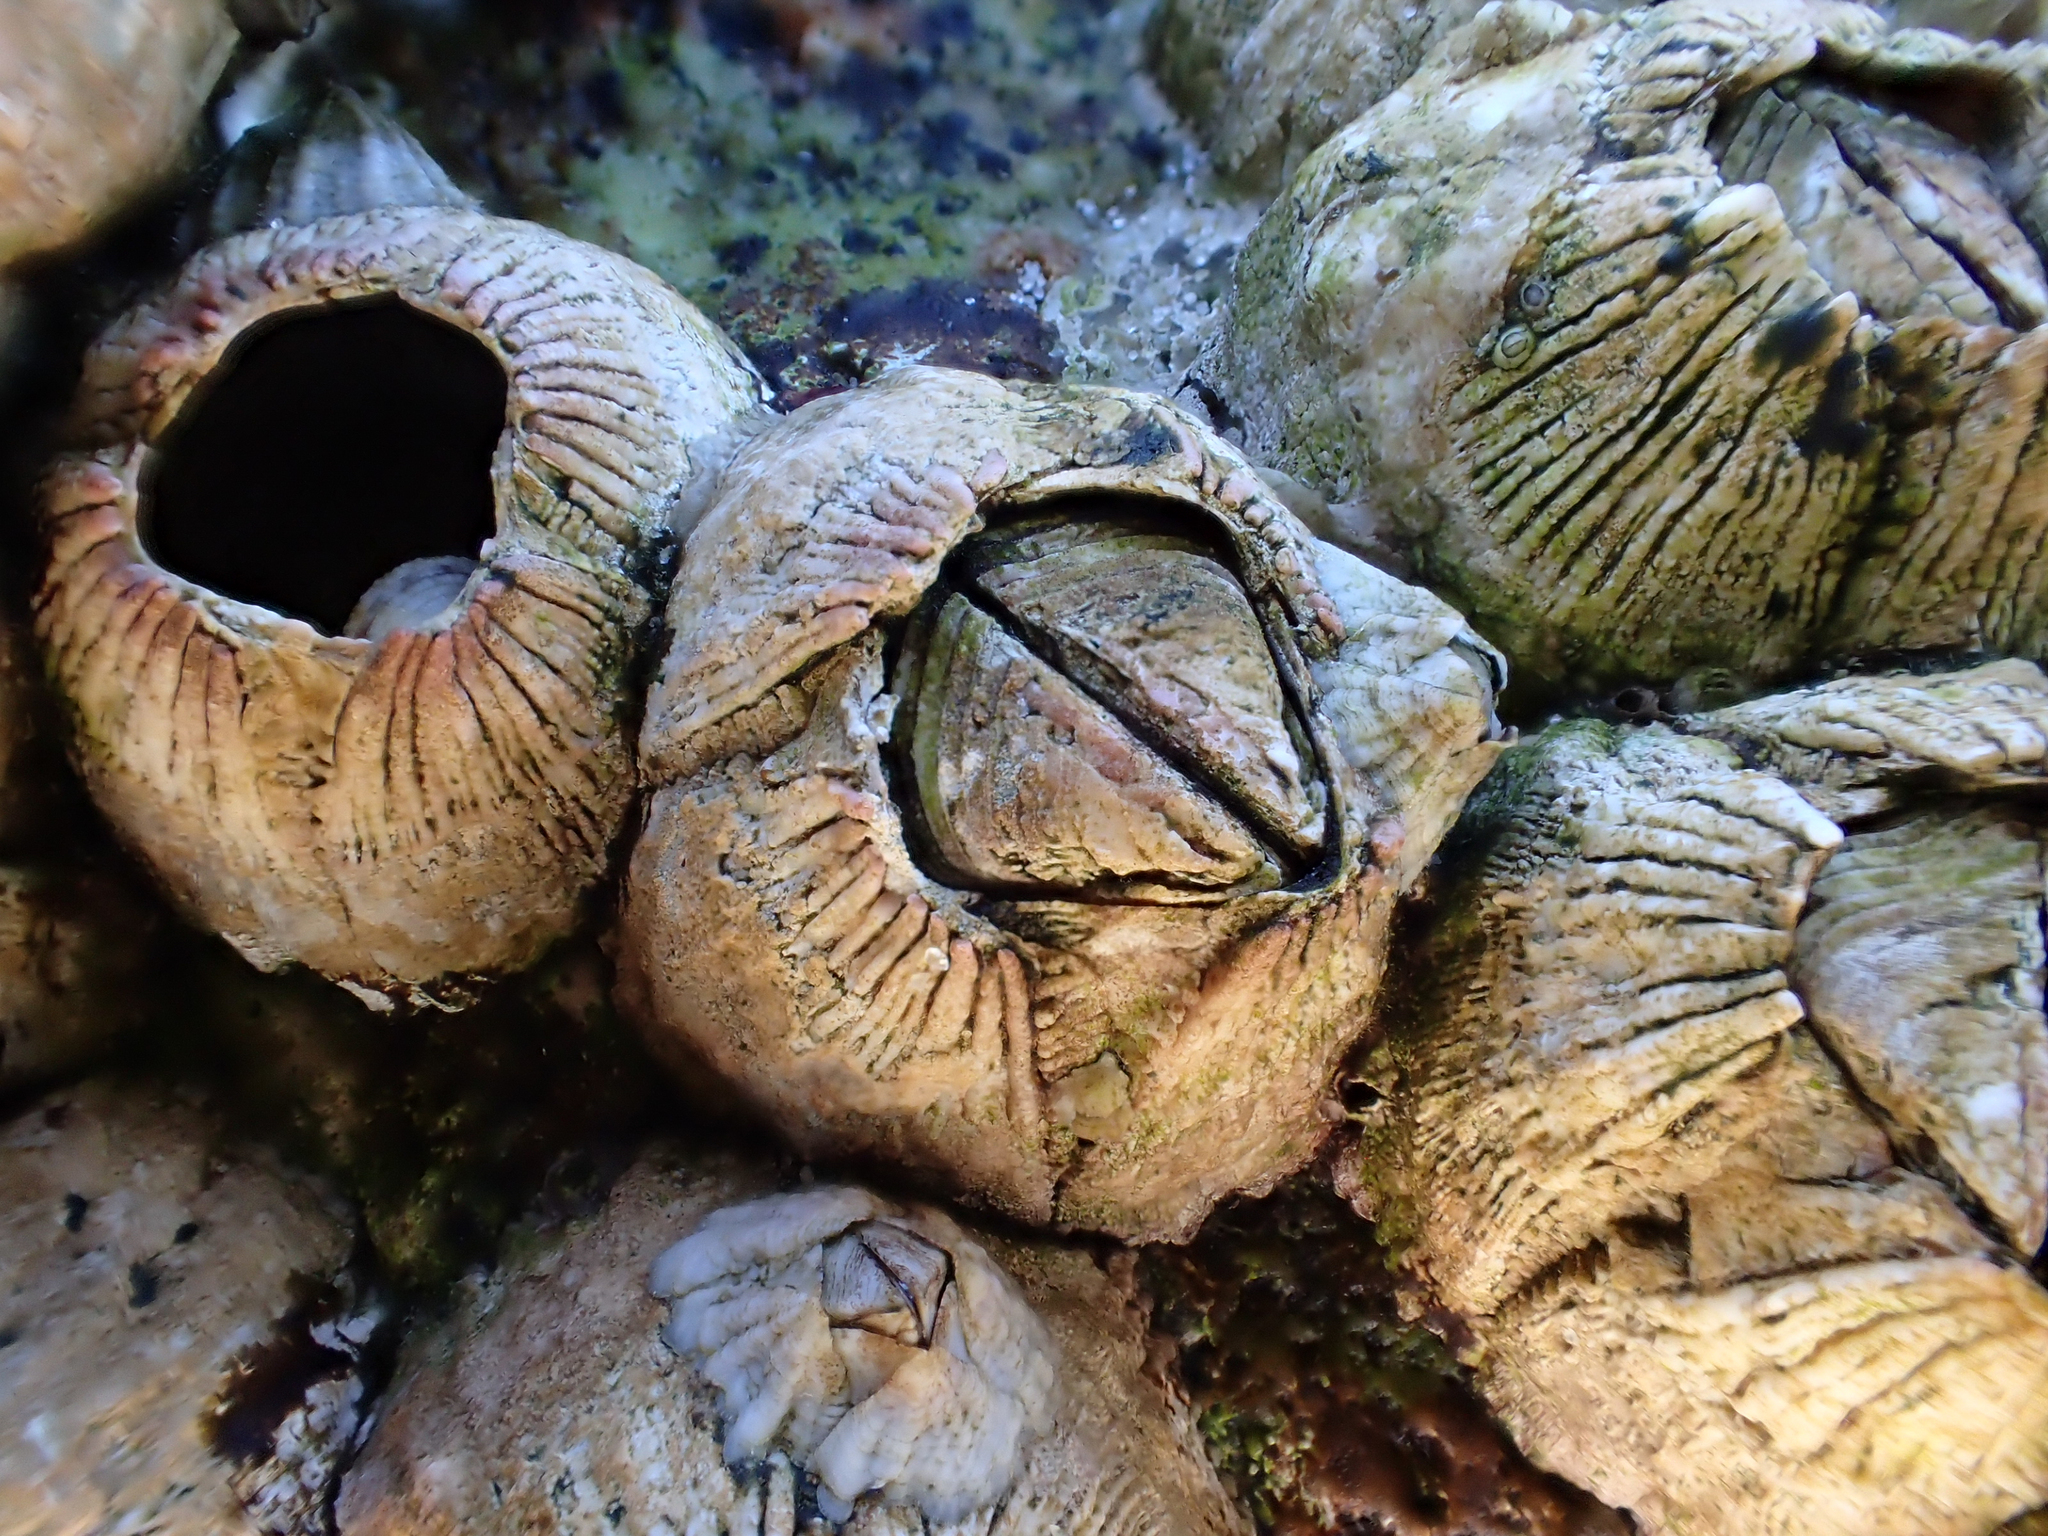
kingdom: Animalia
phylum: Arthropoda
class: Maxillopoda
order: Sessilia
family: Tetraclitidae
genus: Tesseropora
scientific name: Tesseropora rosea
